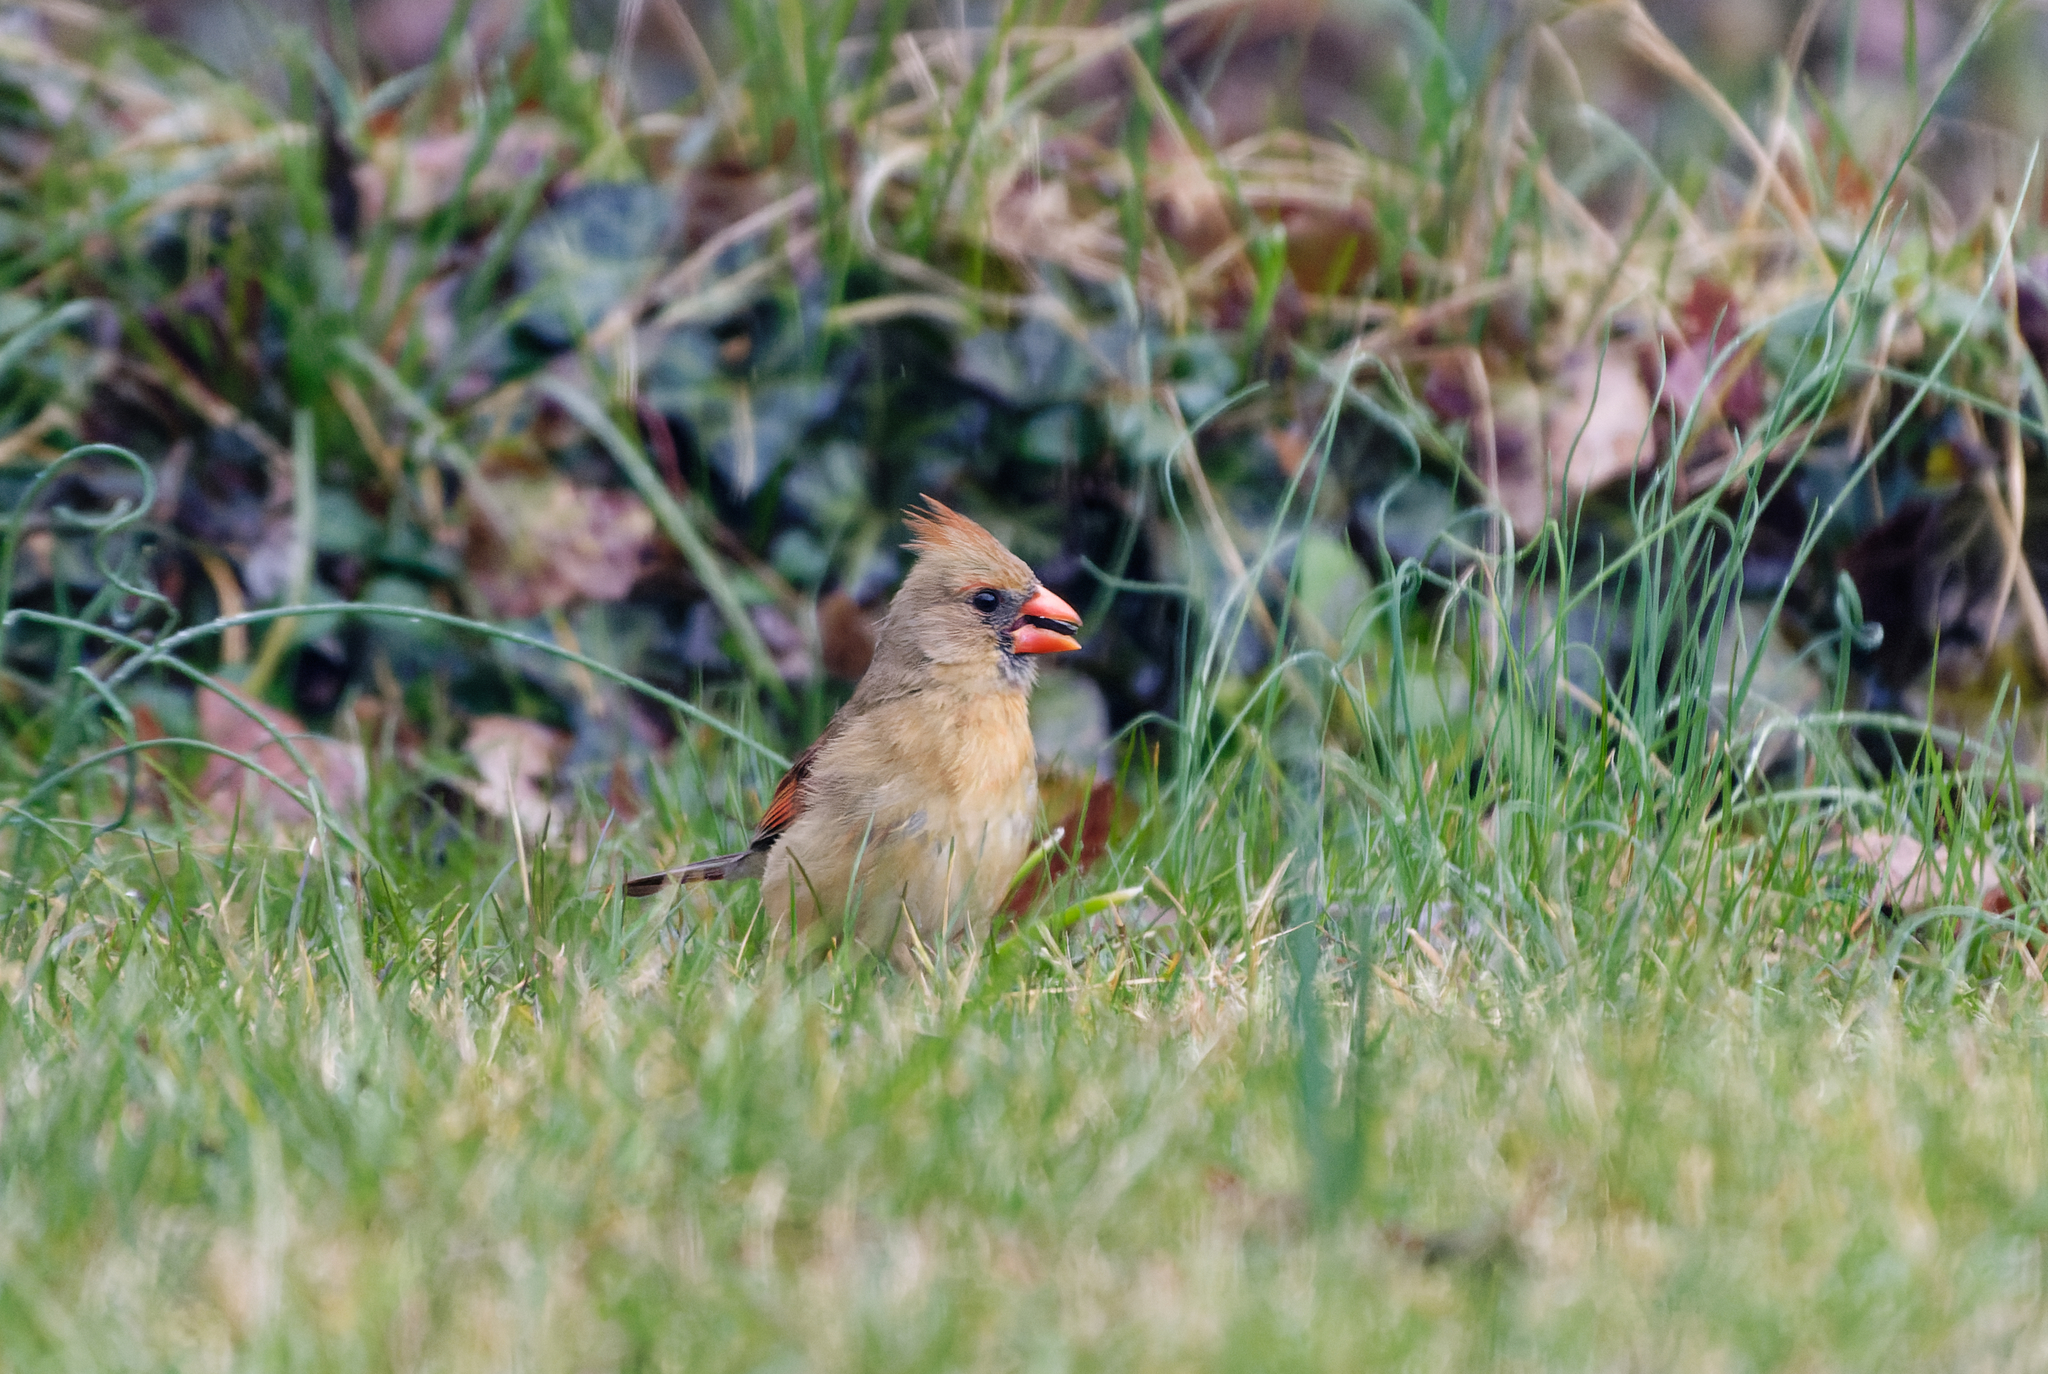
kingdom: Animalia
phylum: Chordata
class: Aves
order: Passeriformes
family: Cardinalidae
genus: Cardinalis
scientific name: Cardinalis cardinalis
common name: Northern cardinal
